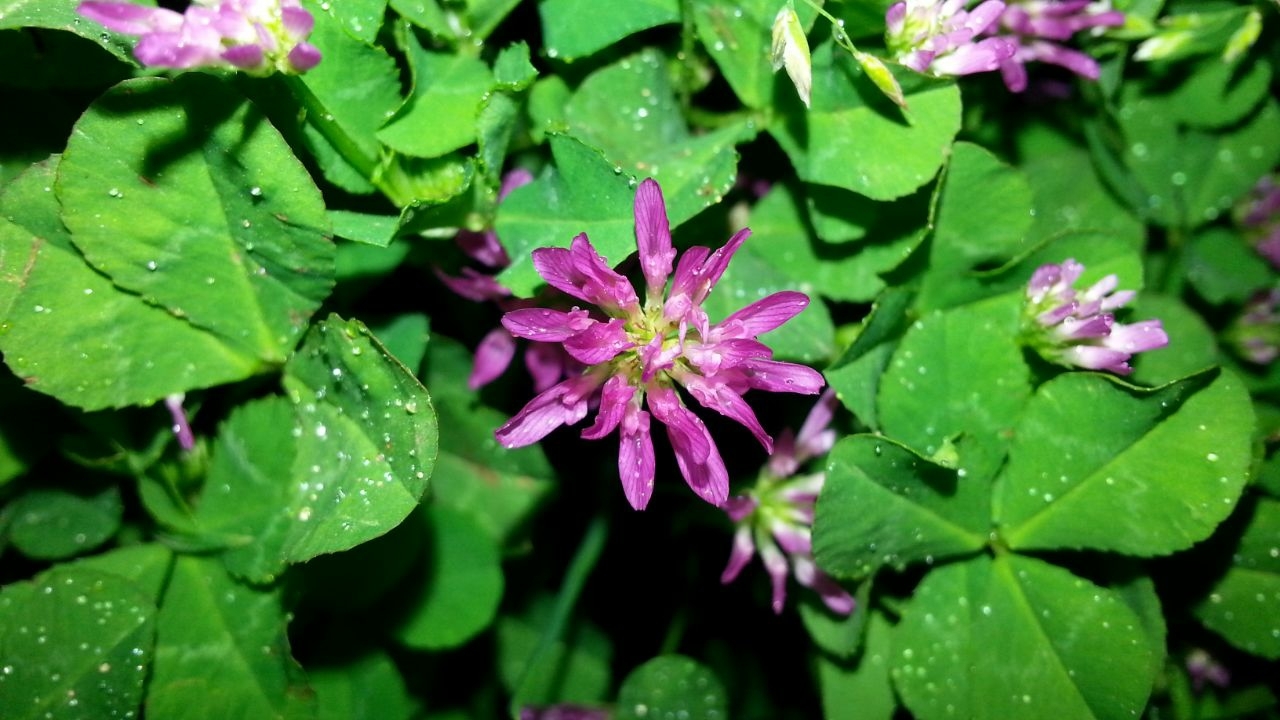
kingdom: Plantae
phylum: Tracheophyta
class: Magnoliopsida
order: Fabales
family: Fabaceae
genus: Trifolium
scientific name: Trifolium resupinatum
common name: Reversed clover
